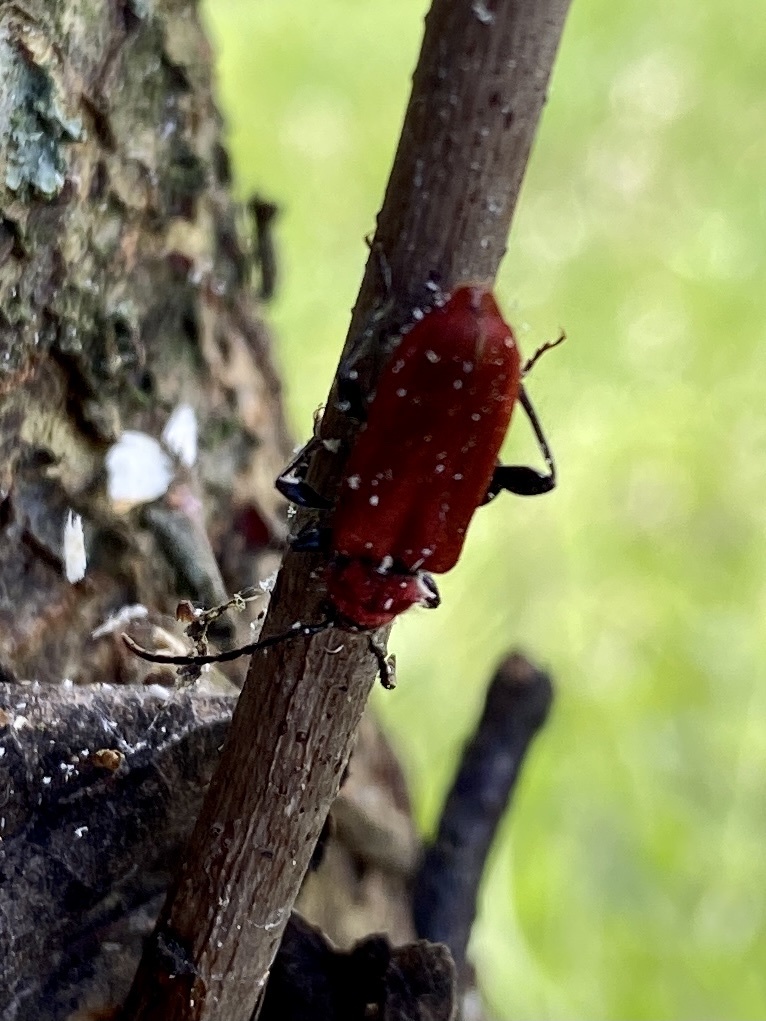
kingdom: Animalia
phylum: Arthropoda
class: Insecta
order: Coleoptera
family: Cerambycidae
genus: Pyrrhidium
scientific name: Pyrrhidium sanguineum
